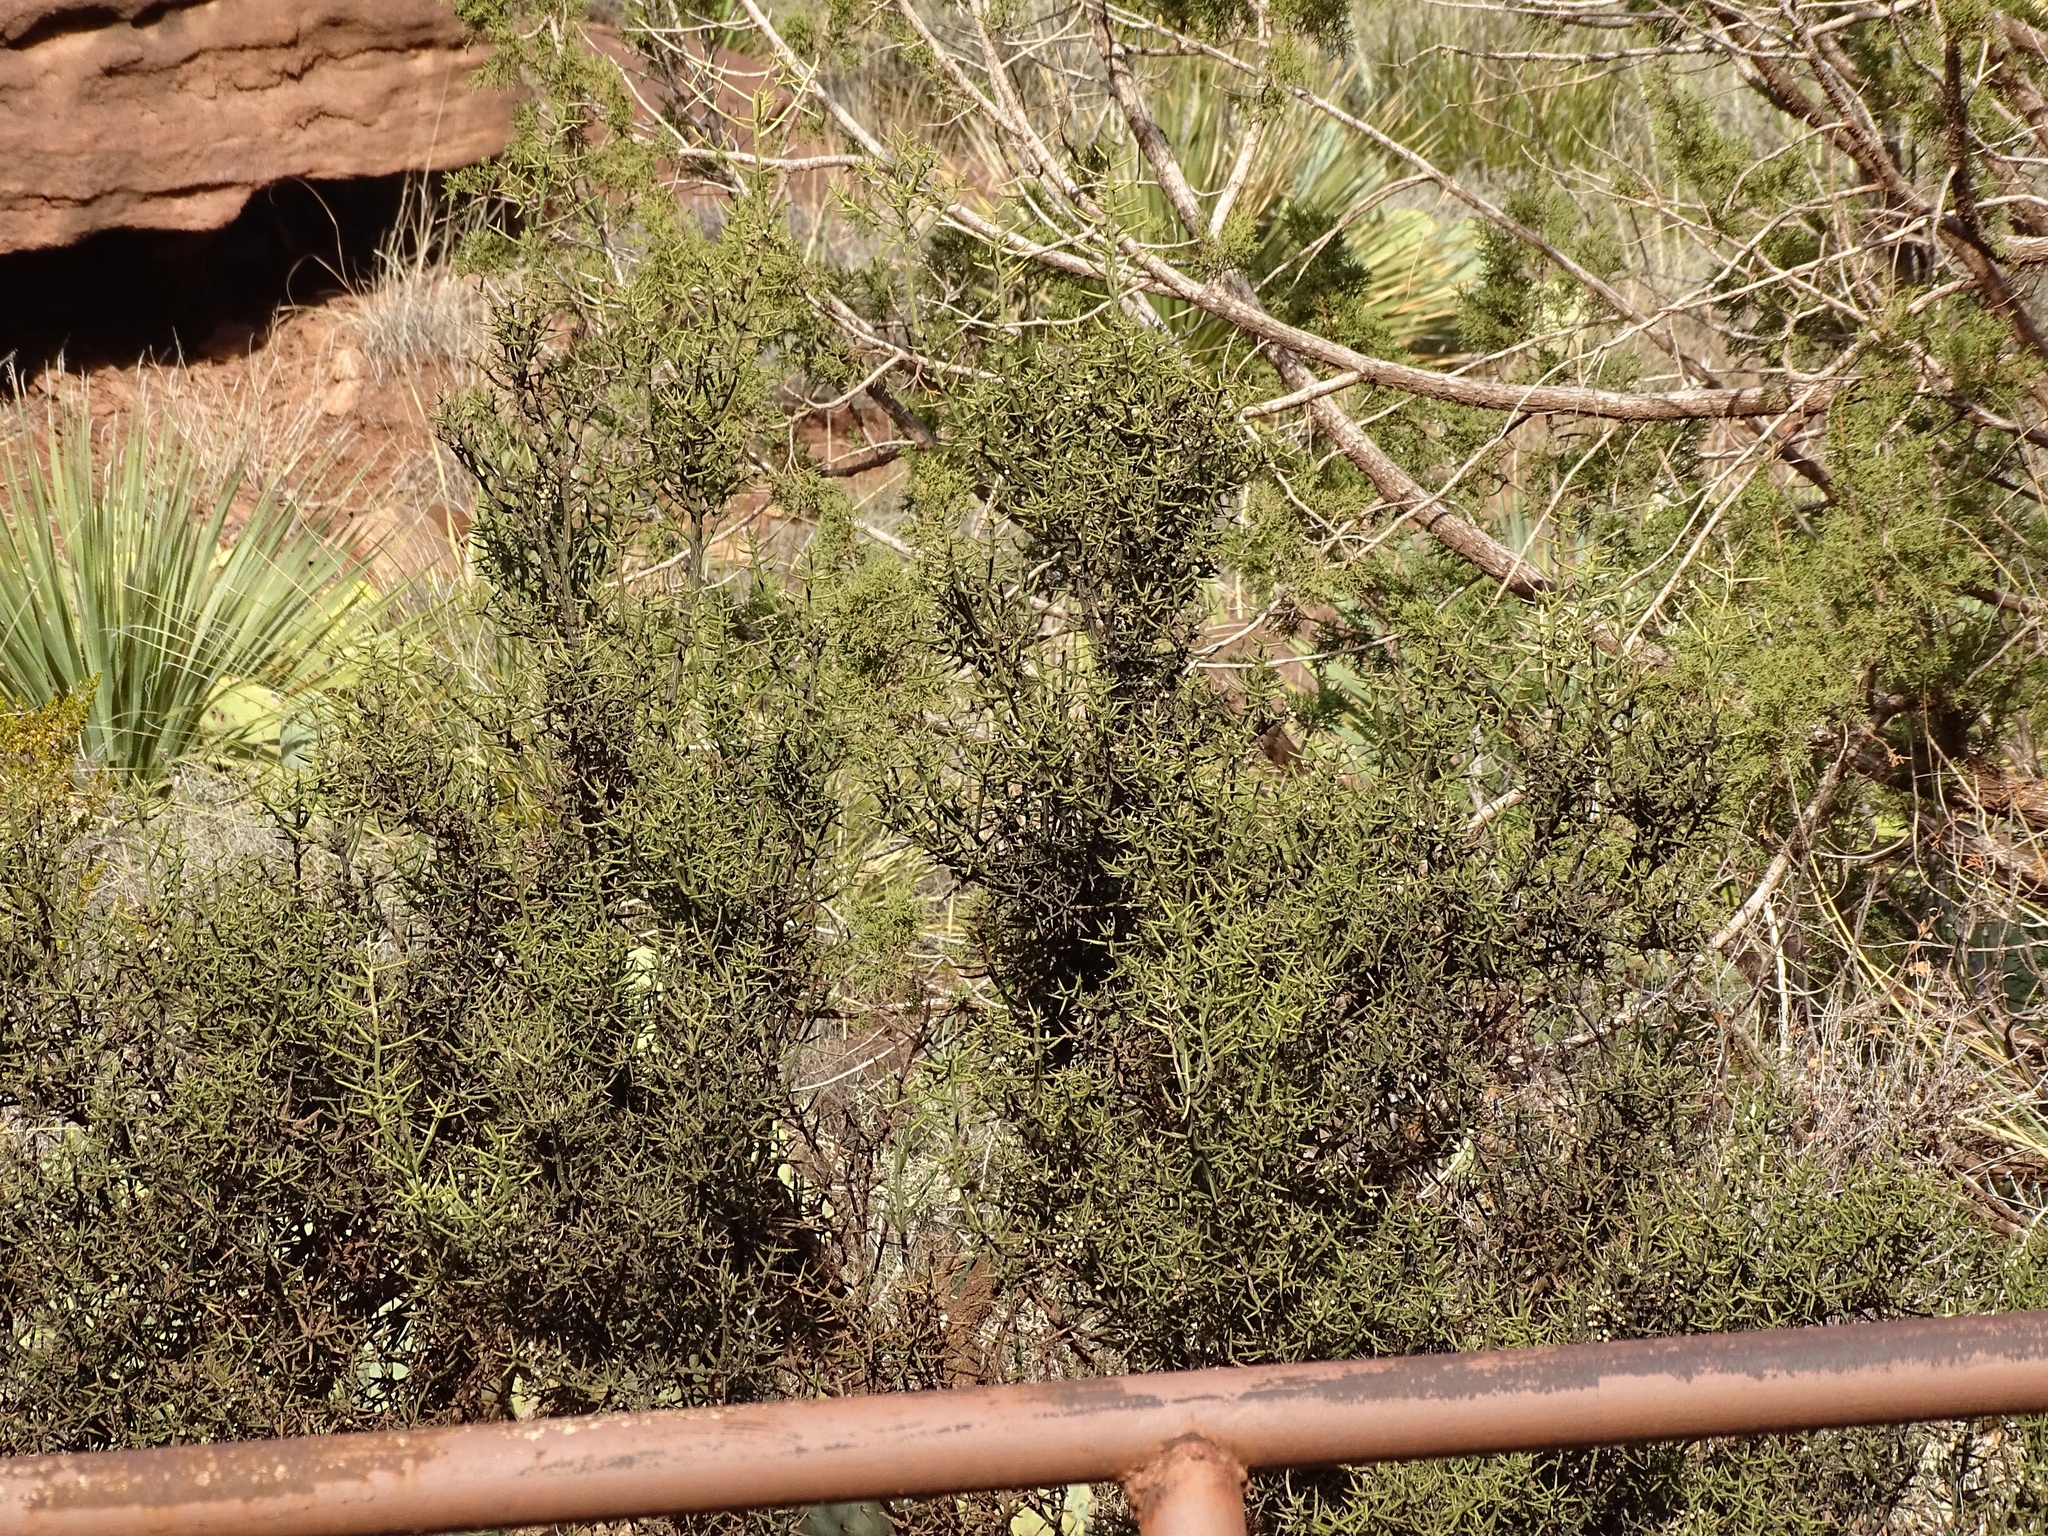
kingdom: Plantae
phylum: Tracheophyta
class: Magnoliopsida
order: Brassicales
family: Koeberliniaceae
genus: Koeberlinia
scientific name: Koeberlinia spinosa
